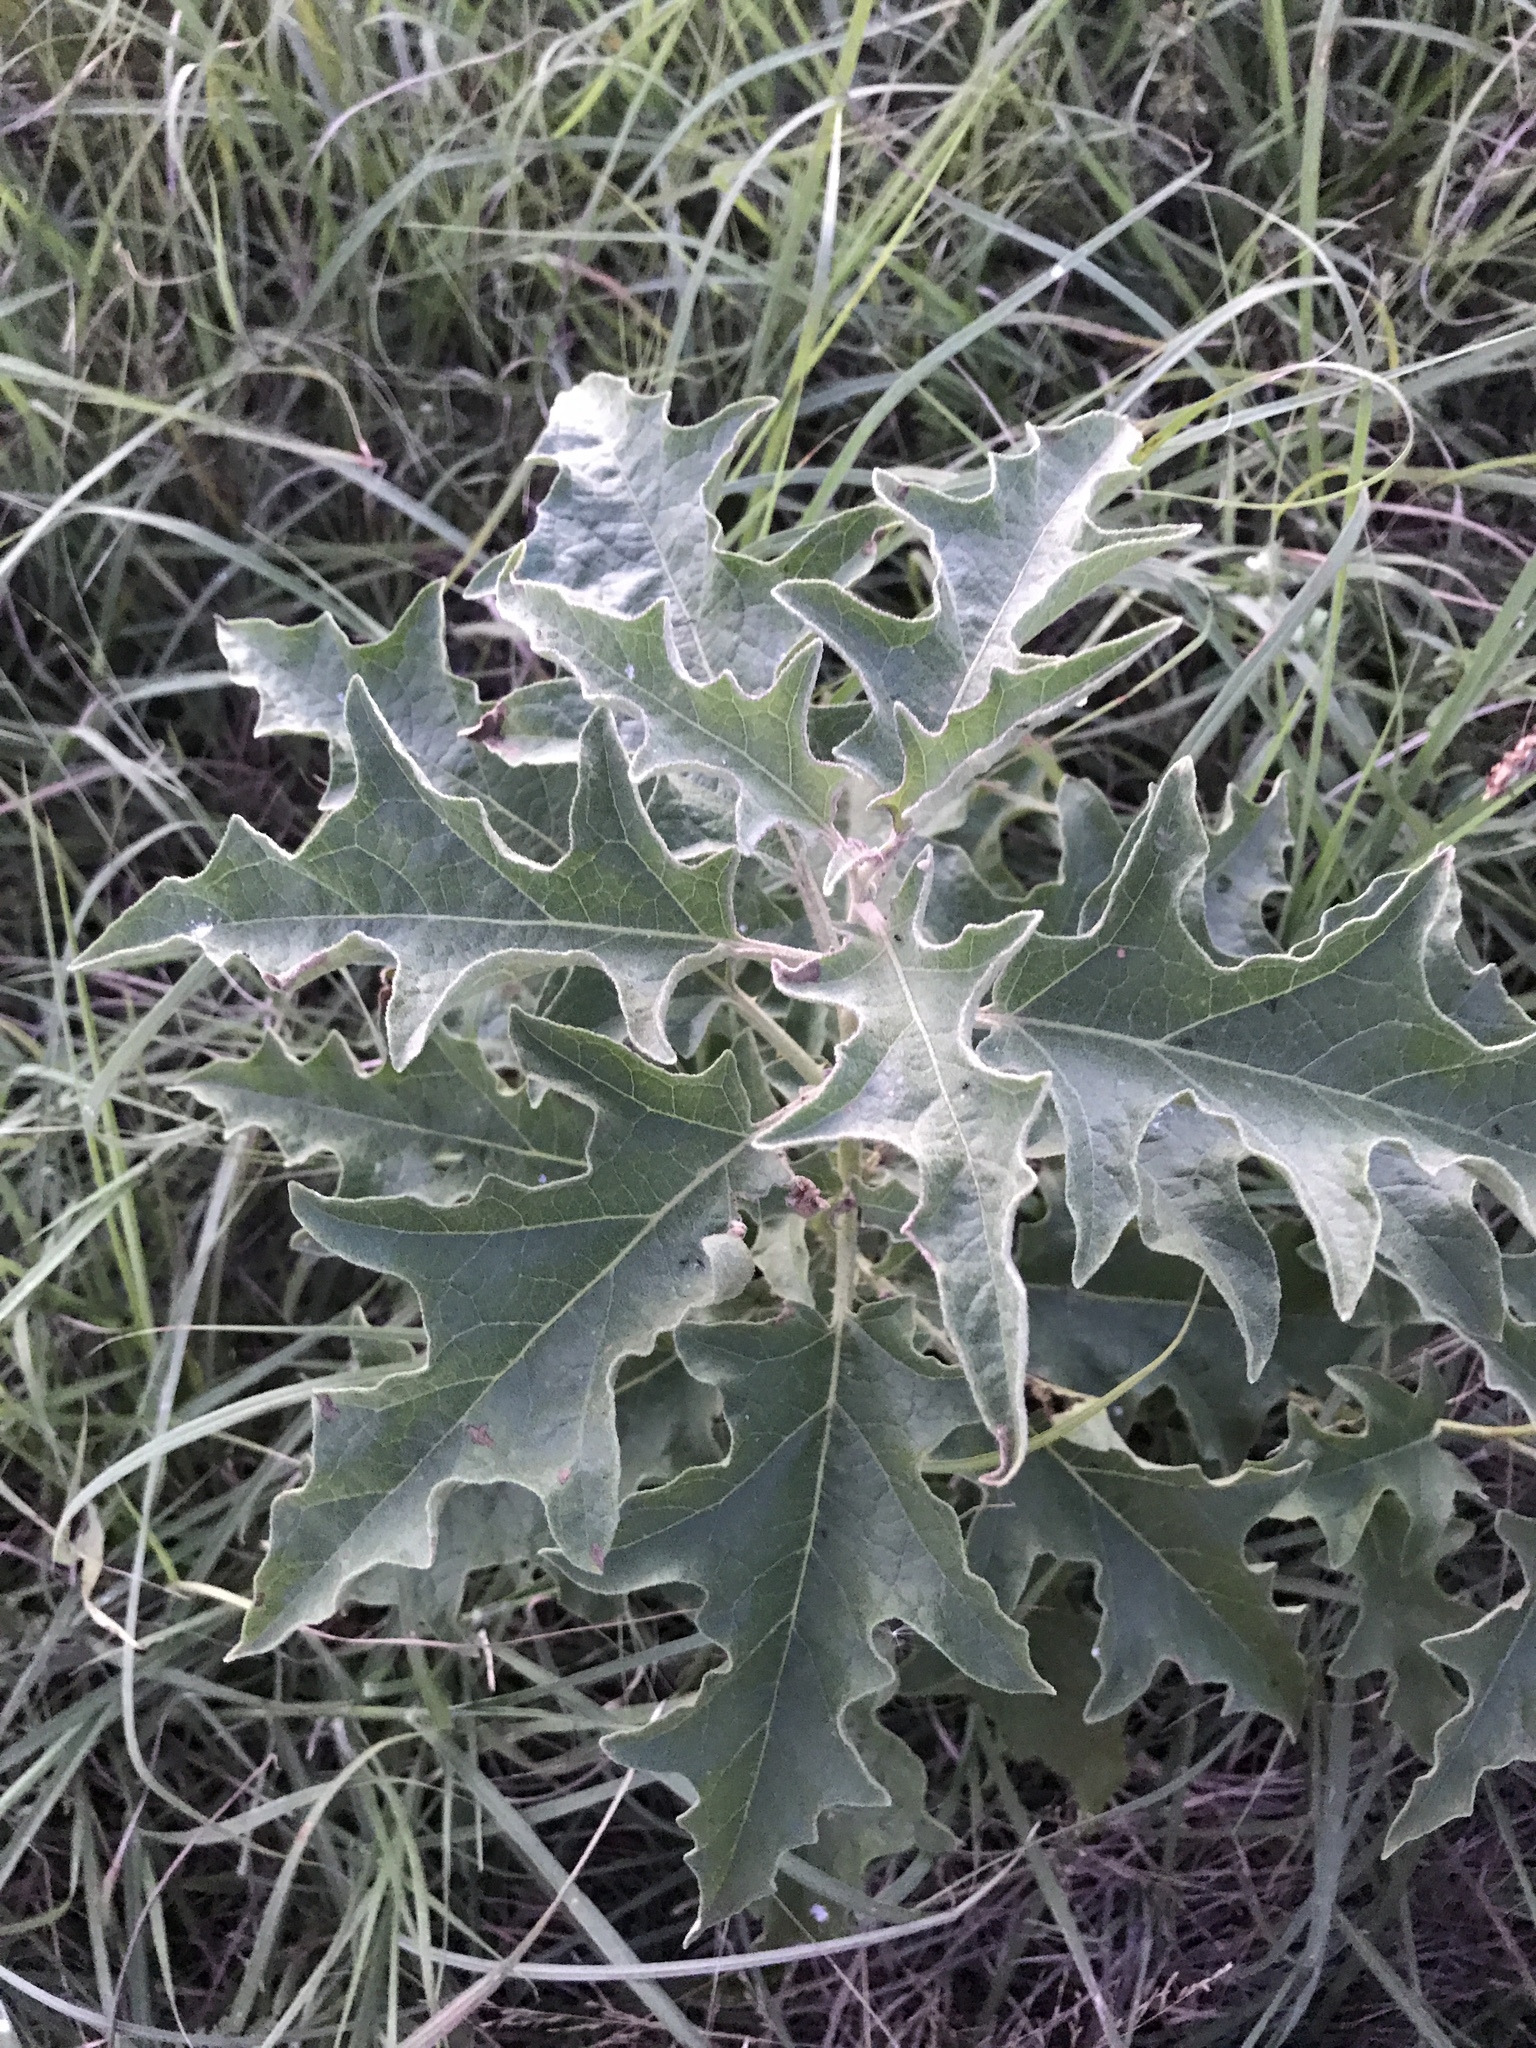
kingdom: Plantae
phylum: Tracheophyta
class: Magnoliopsida
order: Solanales
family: Solanaceae
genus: Solanum
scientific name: Solanum dimidiatum
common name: Carolina horse-nettle
